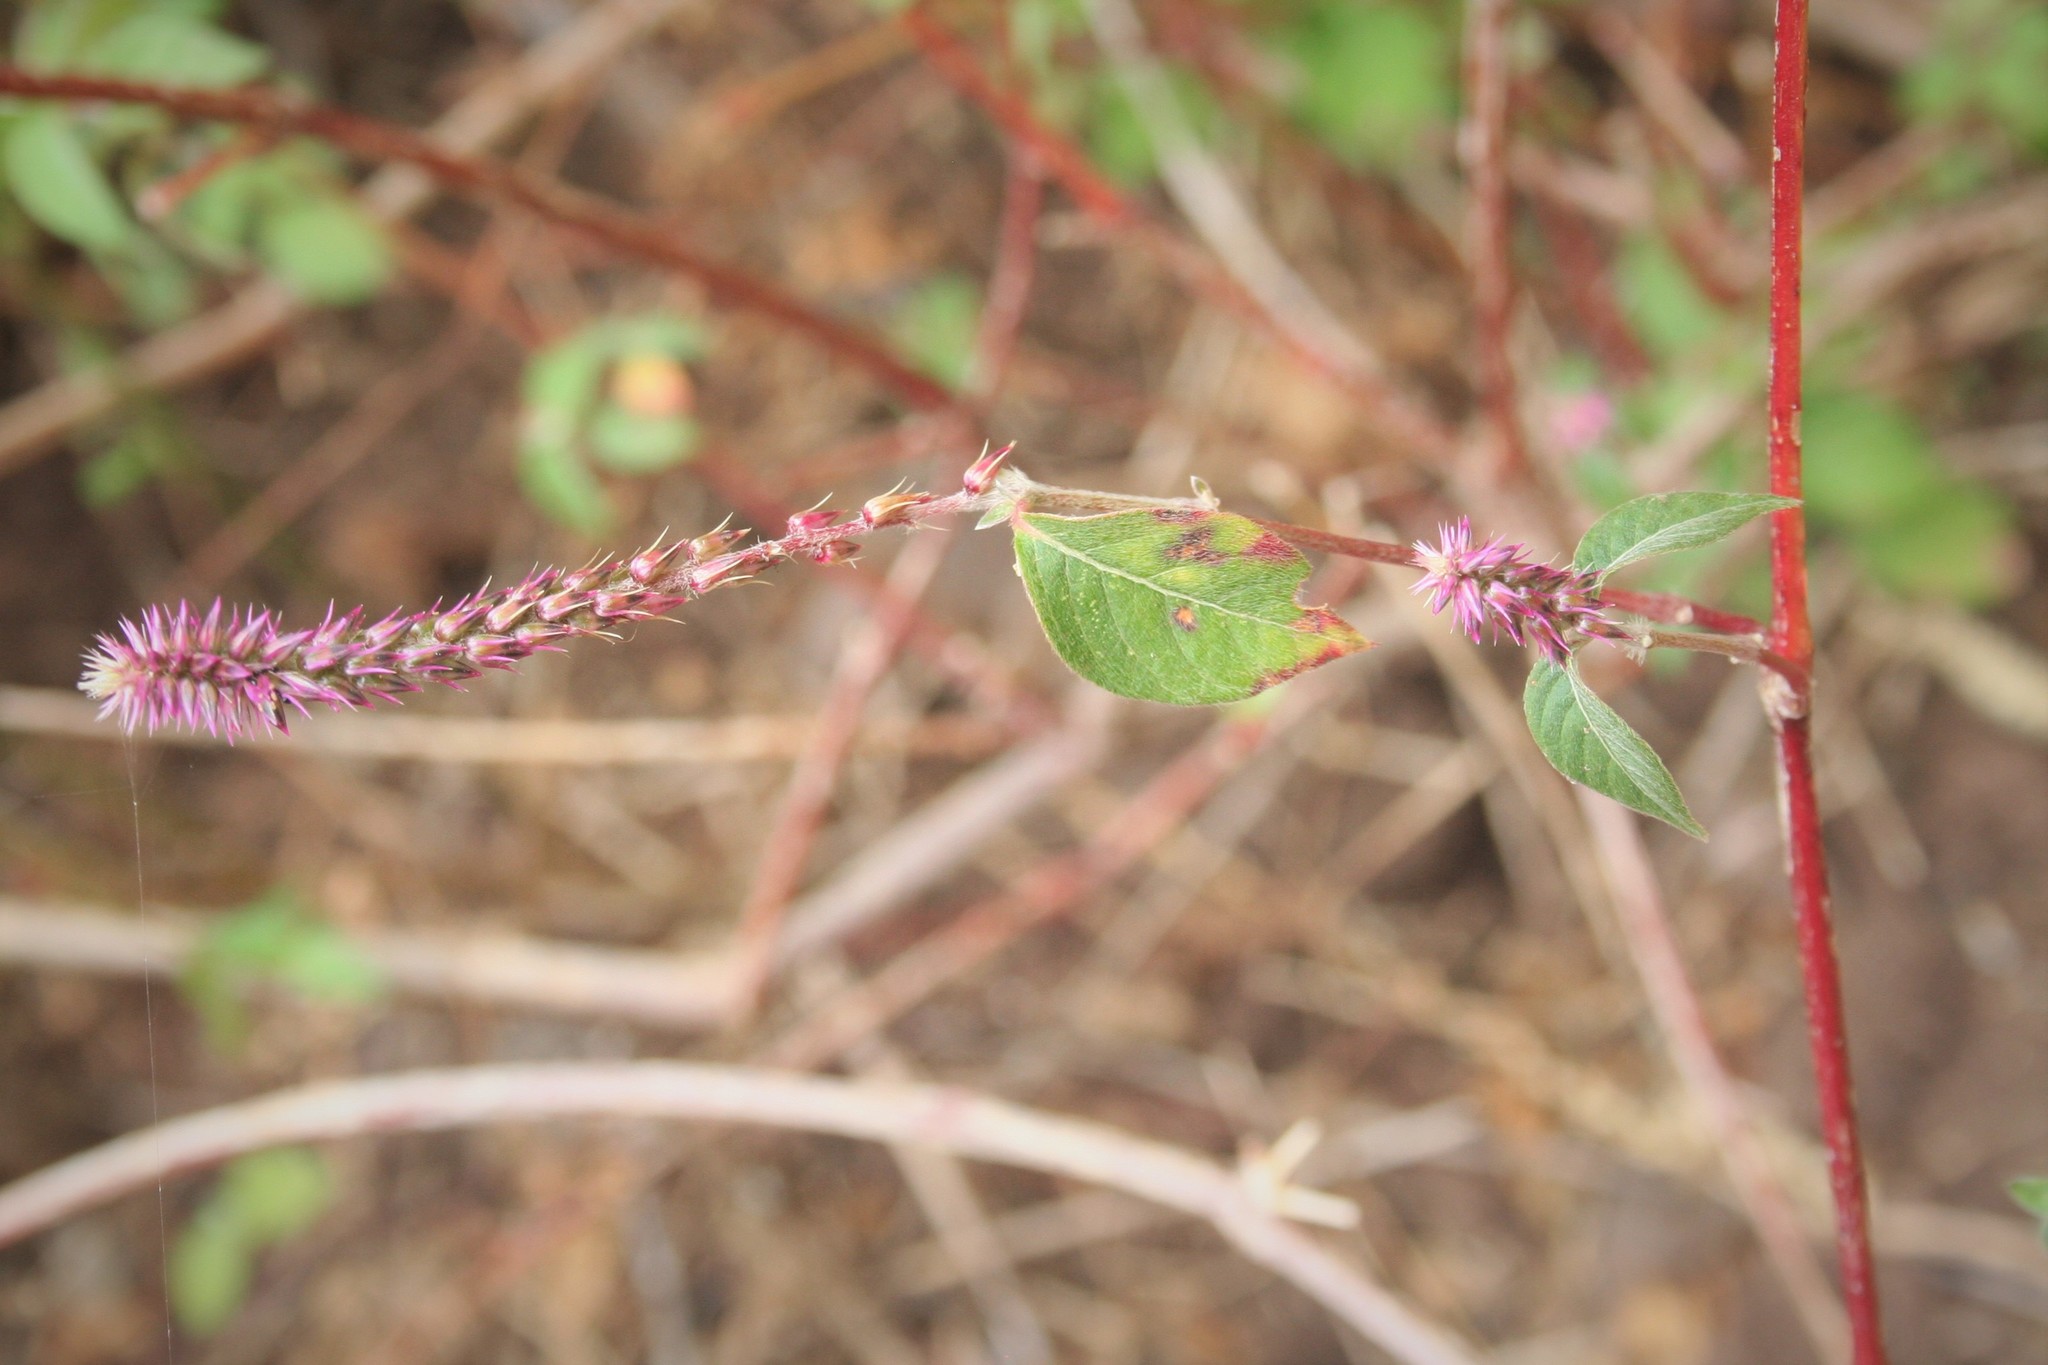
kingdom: Plantae
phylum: Tracheophyta
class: Magnoliopsida
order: Caryophyllales
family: Amaranthaceae
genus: Achyranthes
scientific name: Achyranthes aspera
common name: Devil's horsewhip
